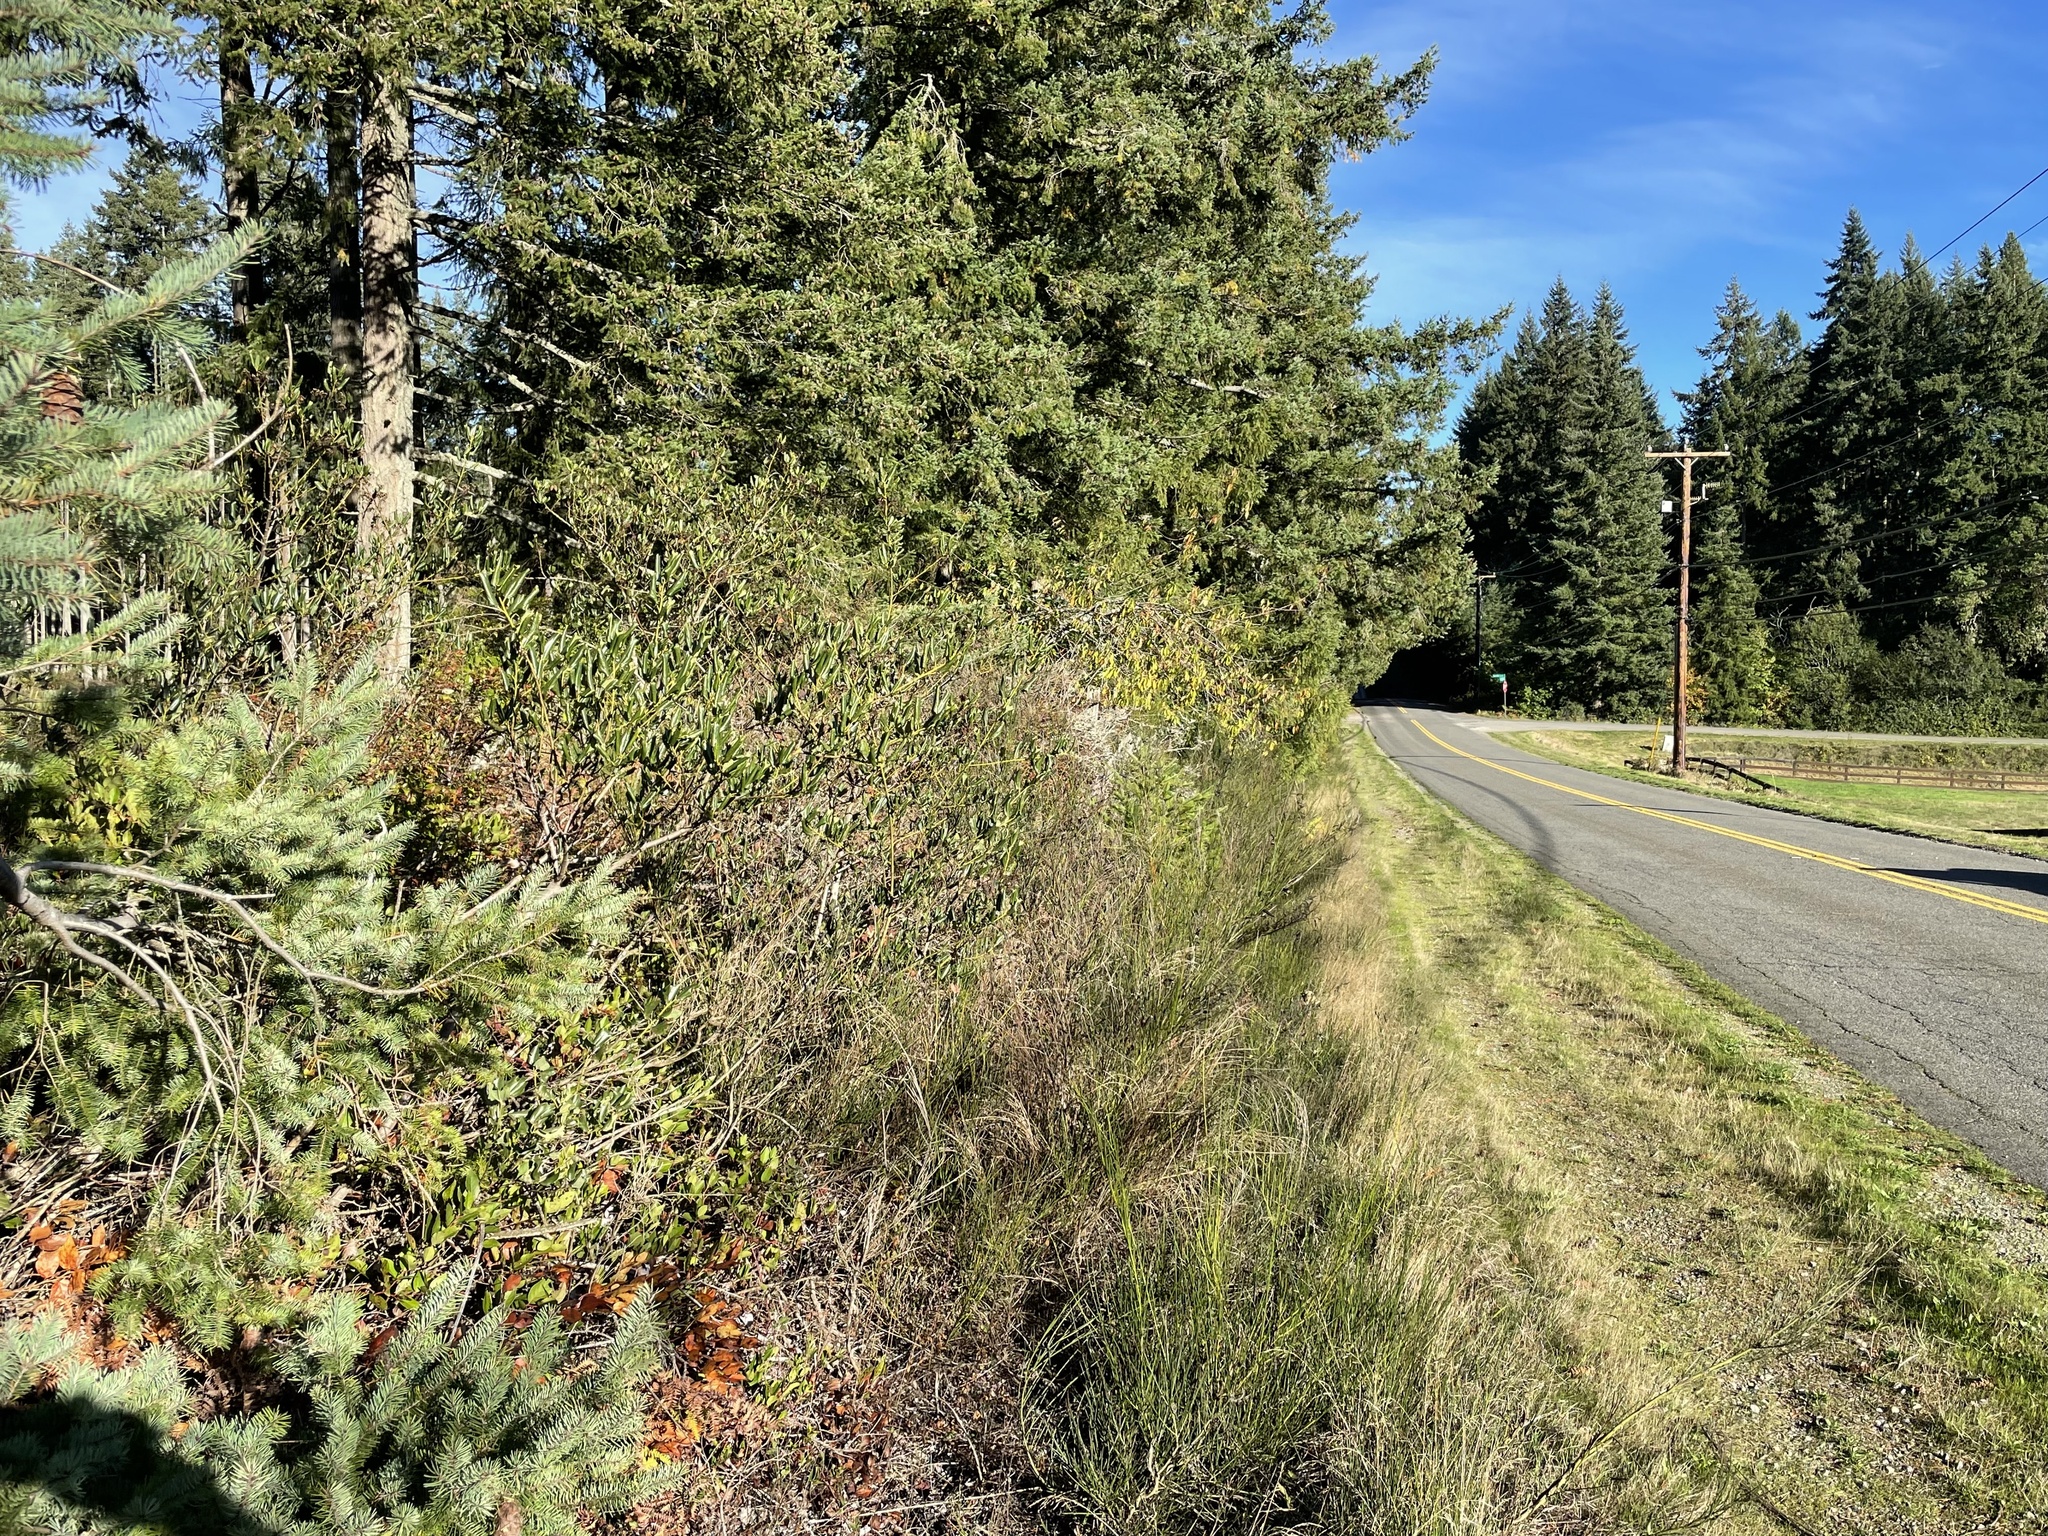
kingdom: Plantae
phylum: Tracheophyta
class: Magnoliopsida
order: Rosales
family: Rhamnaceae
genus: Ceanothus
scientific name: Ceanothus velutinus
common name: Snowbrush
